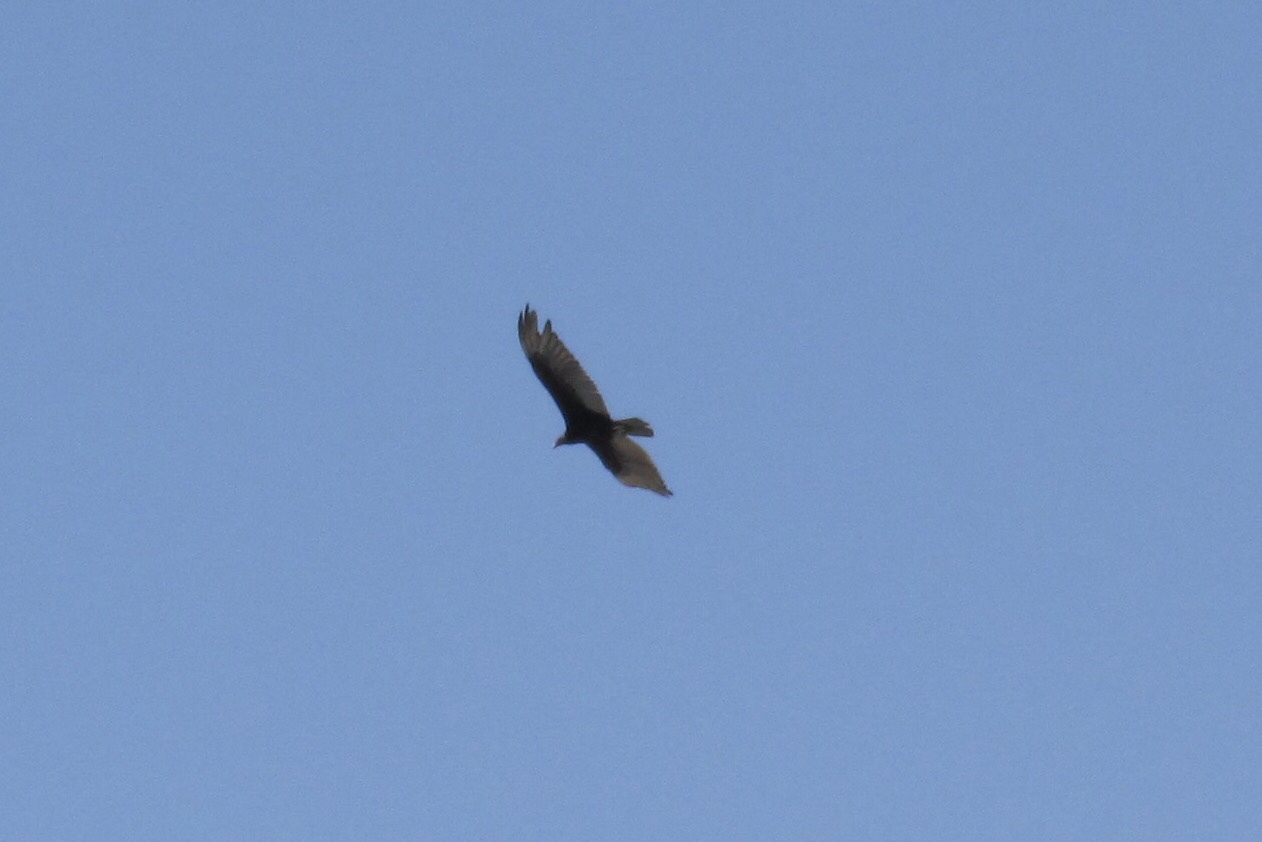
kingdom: Animalia
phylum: Chordata
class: Aves
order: Accipitriformes
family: Cathartidae
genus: Cathartes
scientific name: Cathartes aura
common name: Turkey vulture
